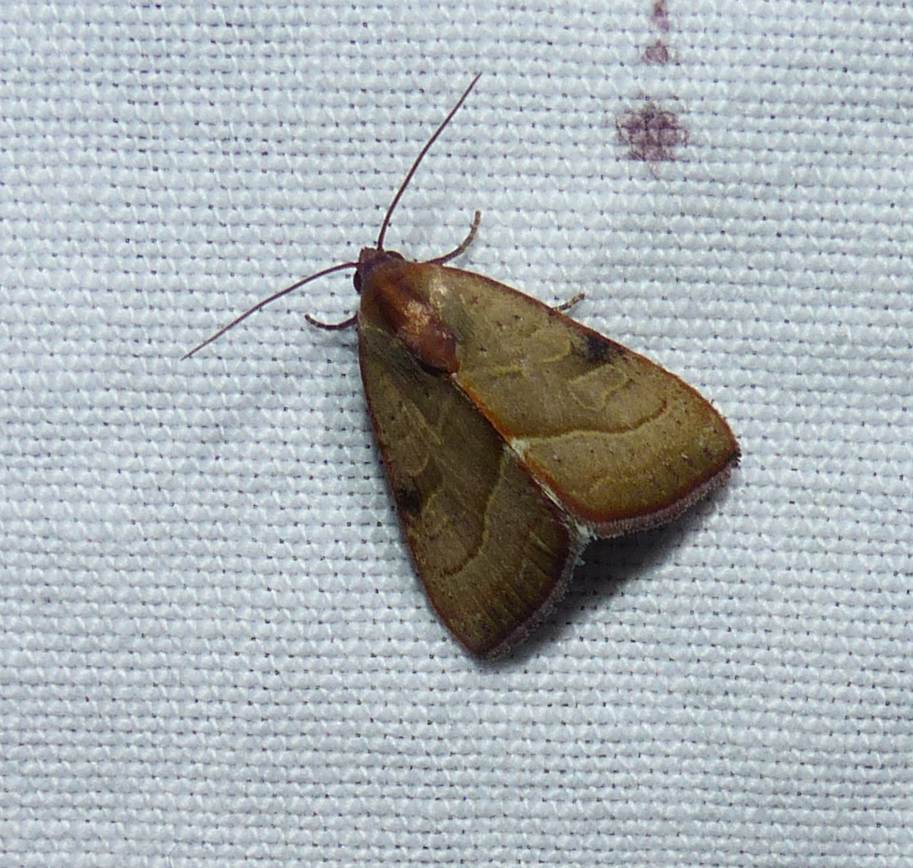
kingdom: Animalia
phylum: Arthropoda
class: Insecta
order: Lepidoptera
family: Noctuidae
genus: Galgula
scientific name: Galgula partita
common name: Wedgeling
